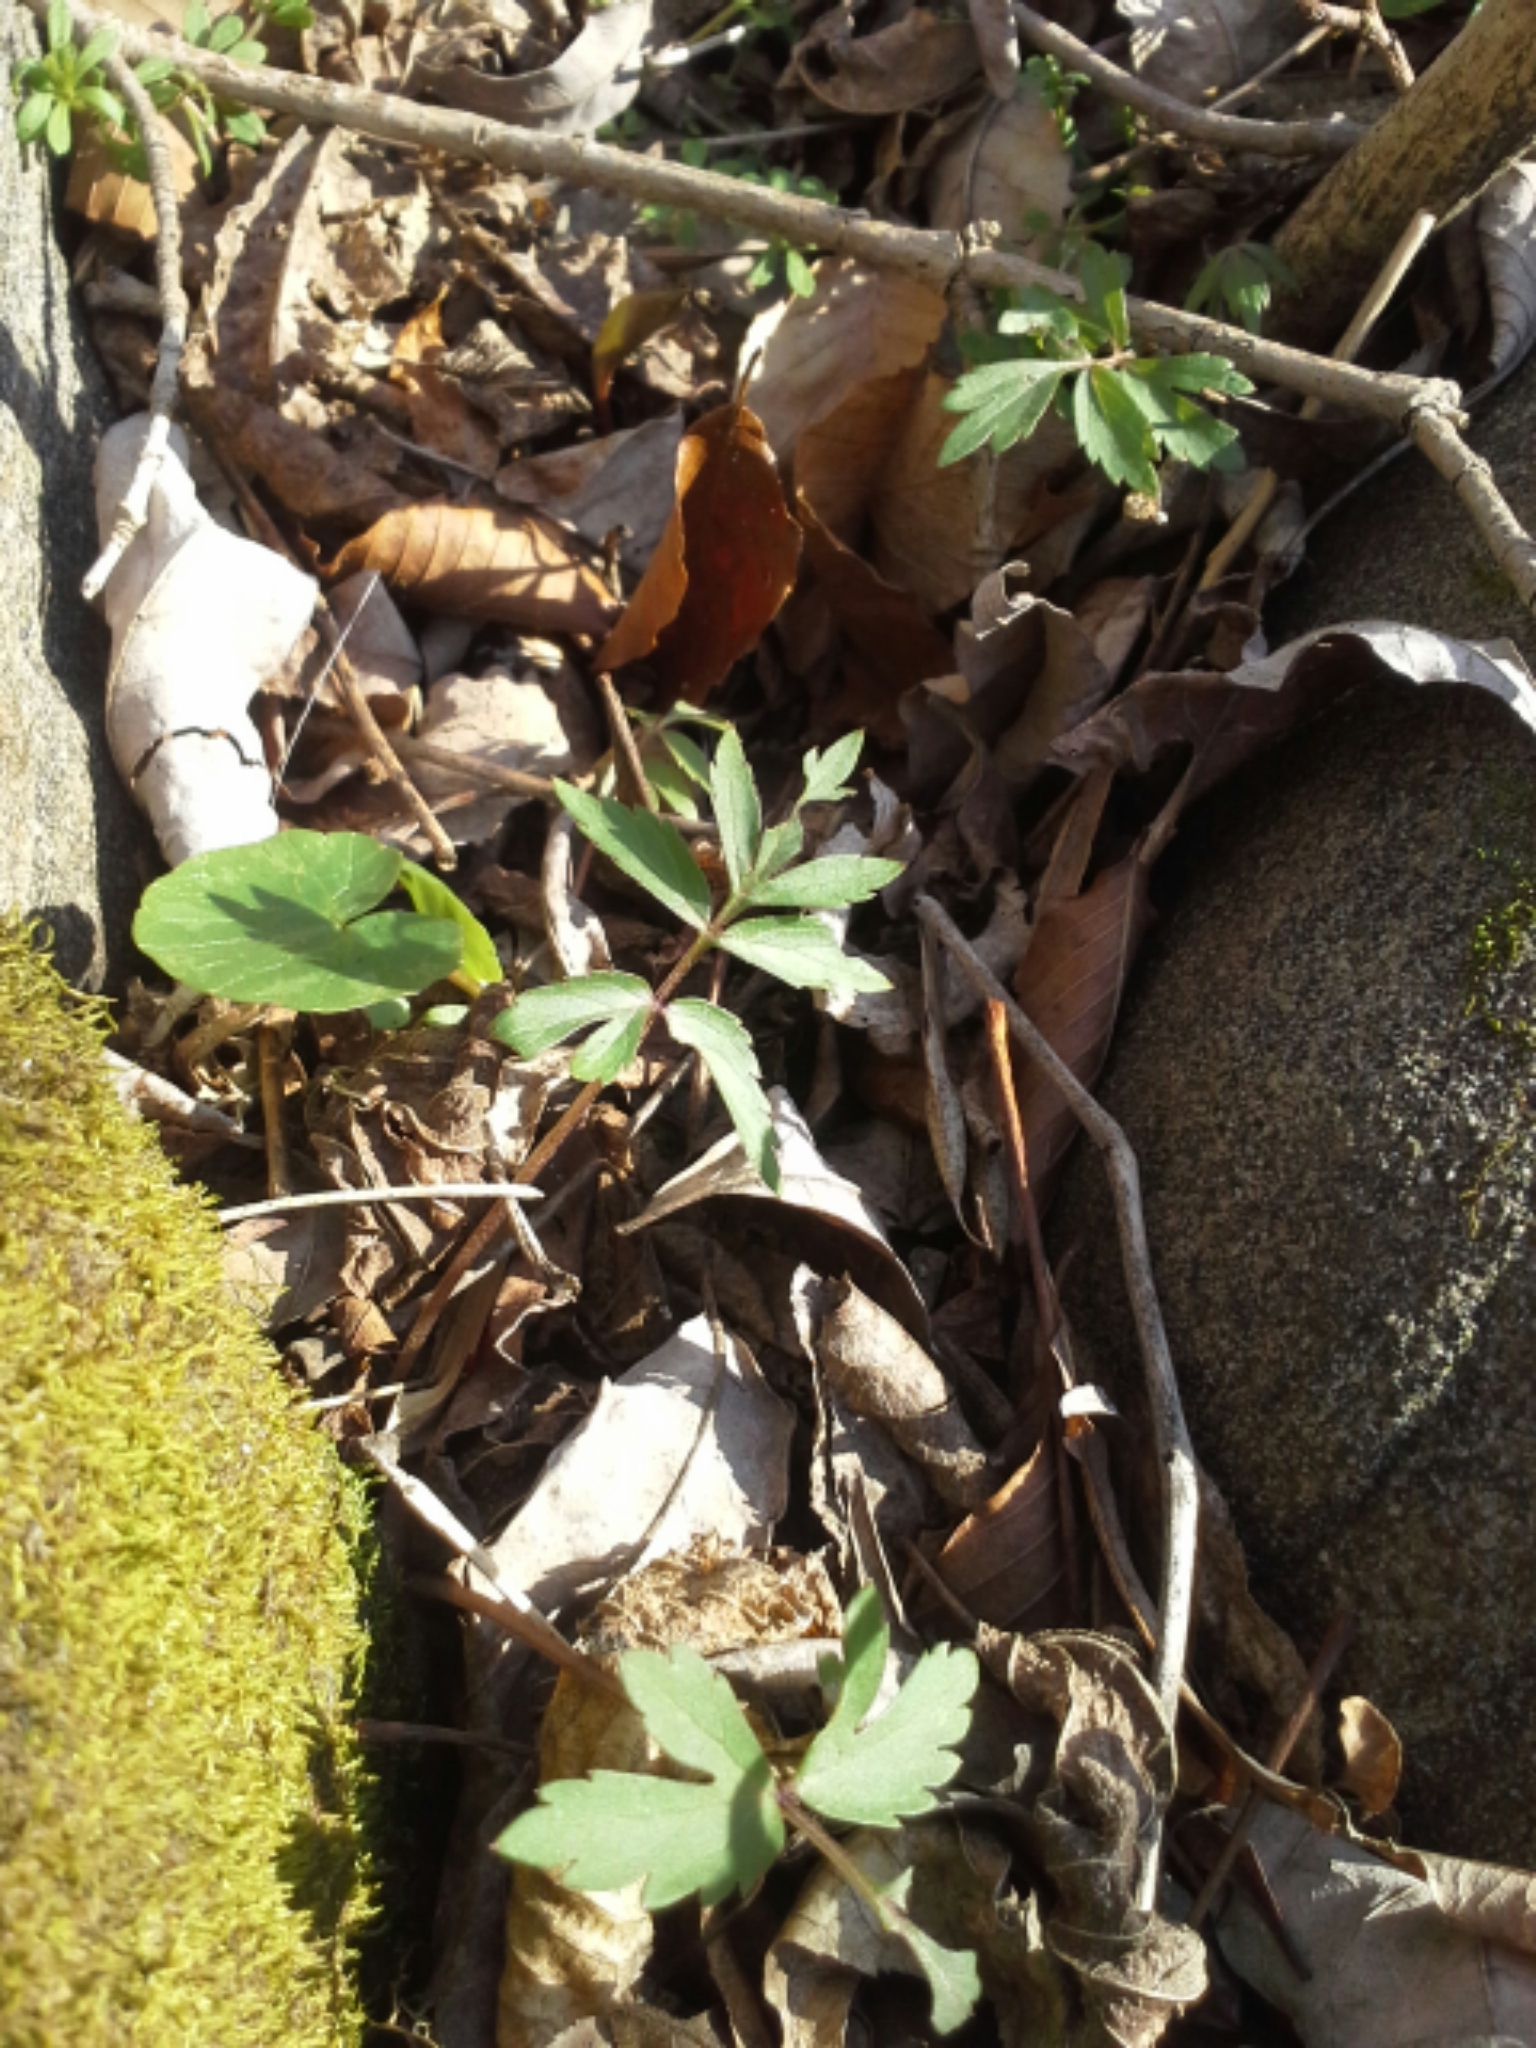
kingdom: Plantae
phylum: Tracheophyta
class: Magnoliopsida
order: Boraginales
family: Hydrophyllaceae
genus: Hydrophyllum
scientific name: Hydrophyllum virginianum
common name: Virginia waterleaf
